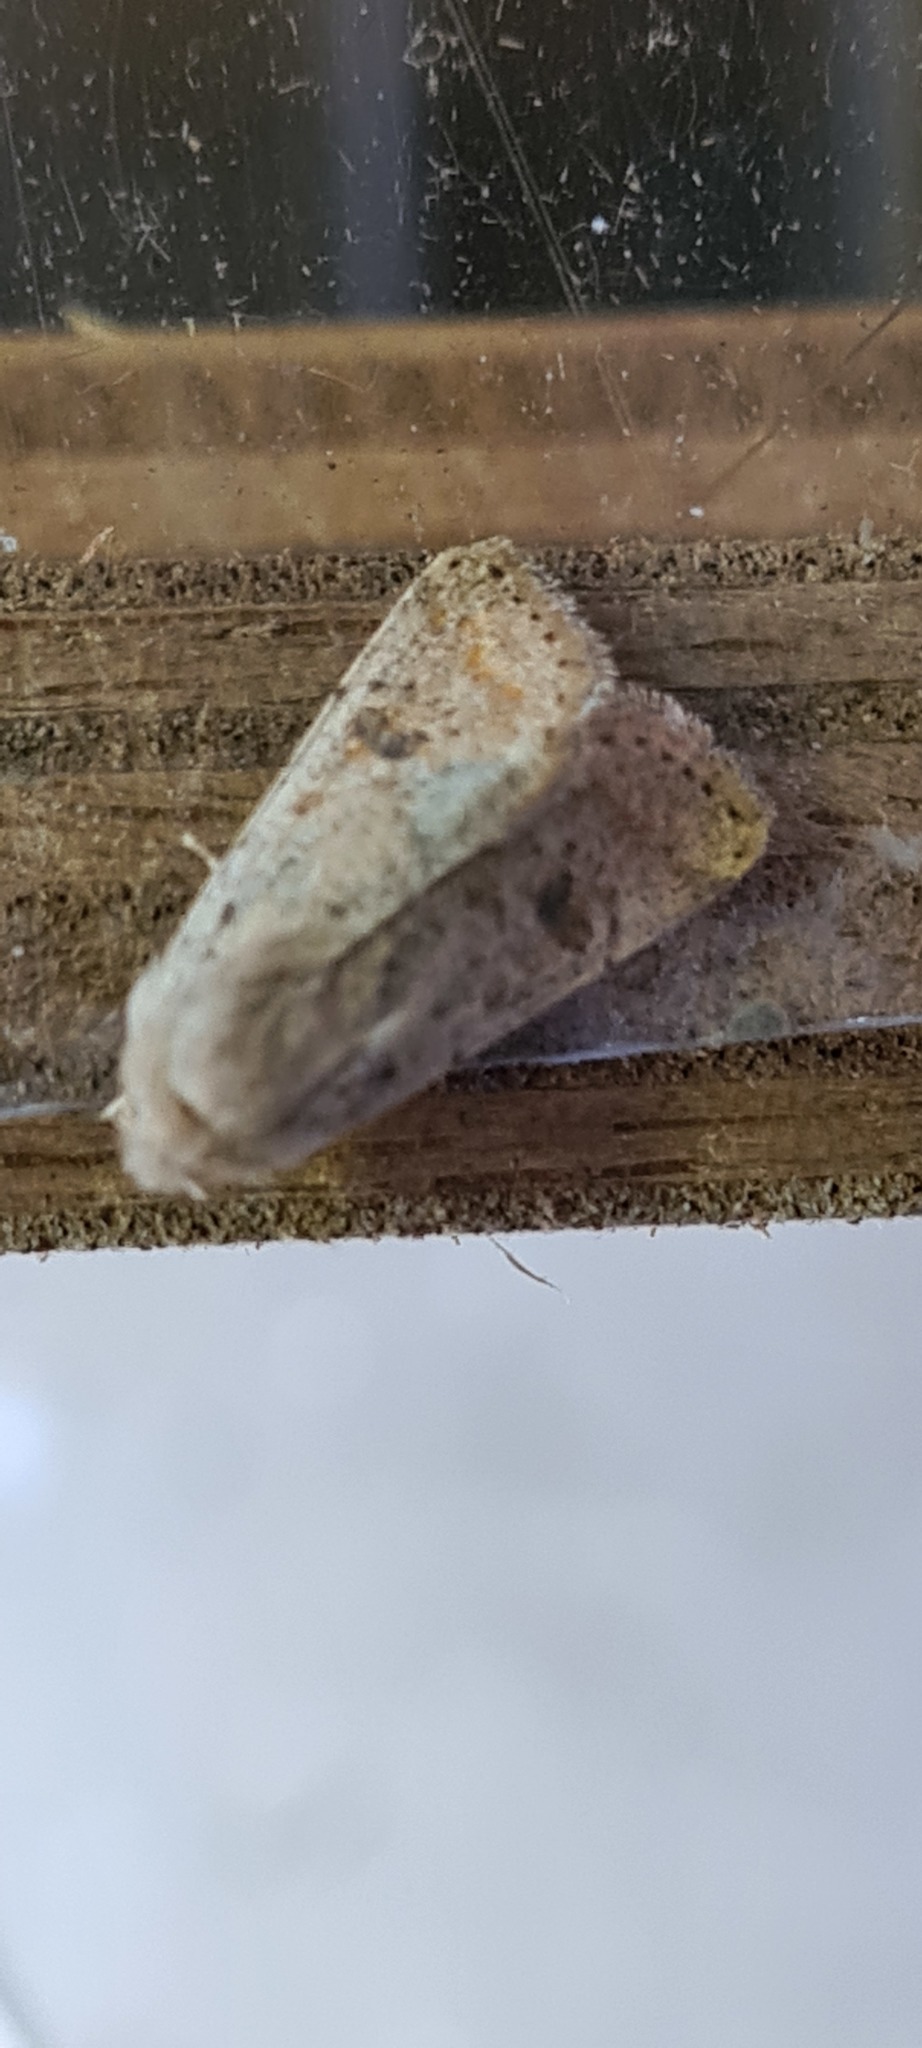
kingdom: Animalia
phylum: Arthropoda
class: Insecta
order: Lepidoptera
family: Noctuidae
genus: Orthosia
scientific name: Orthosia cruda
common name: Small quaker
